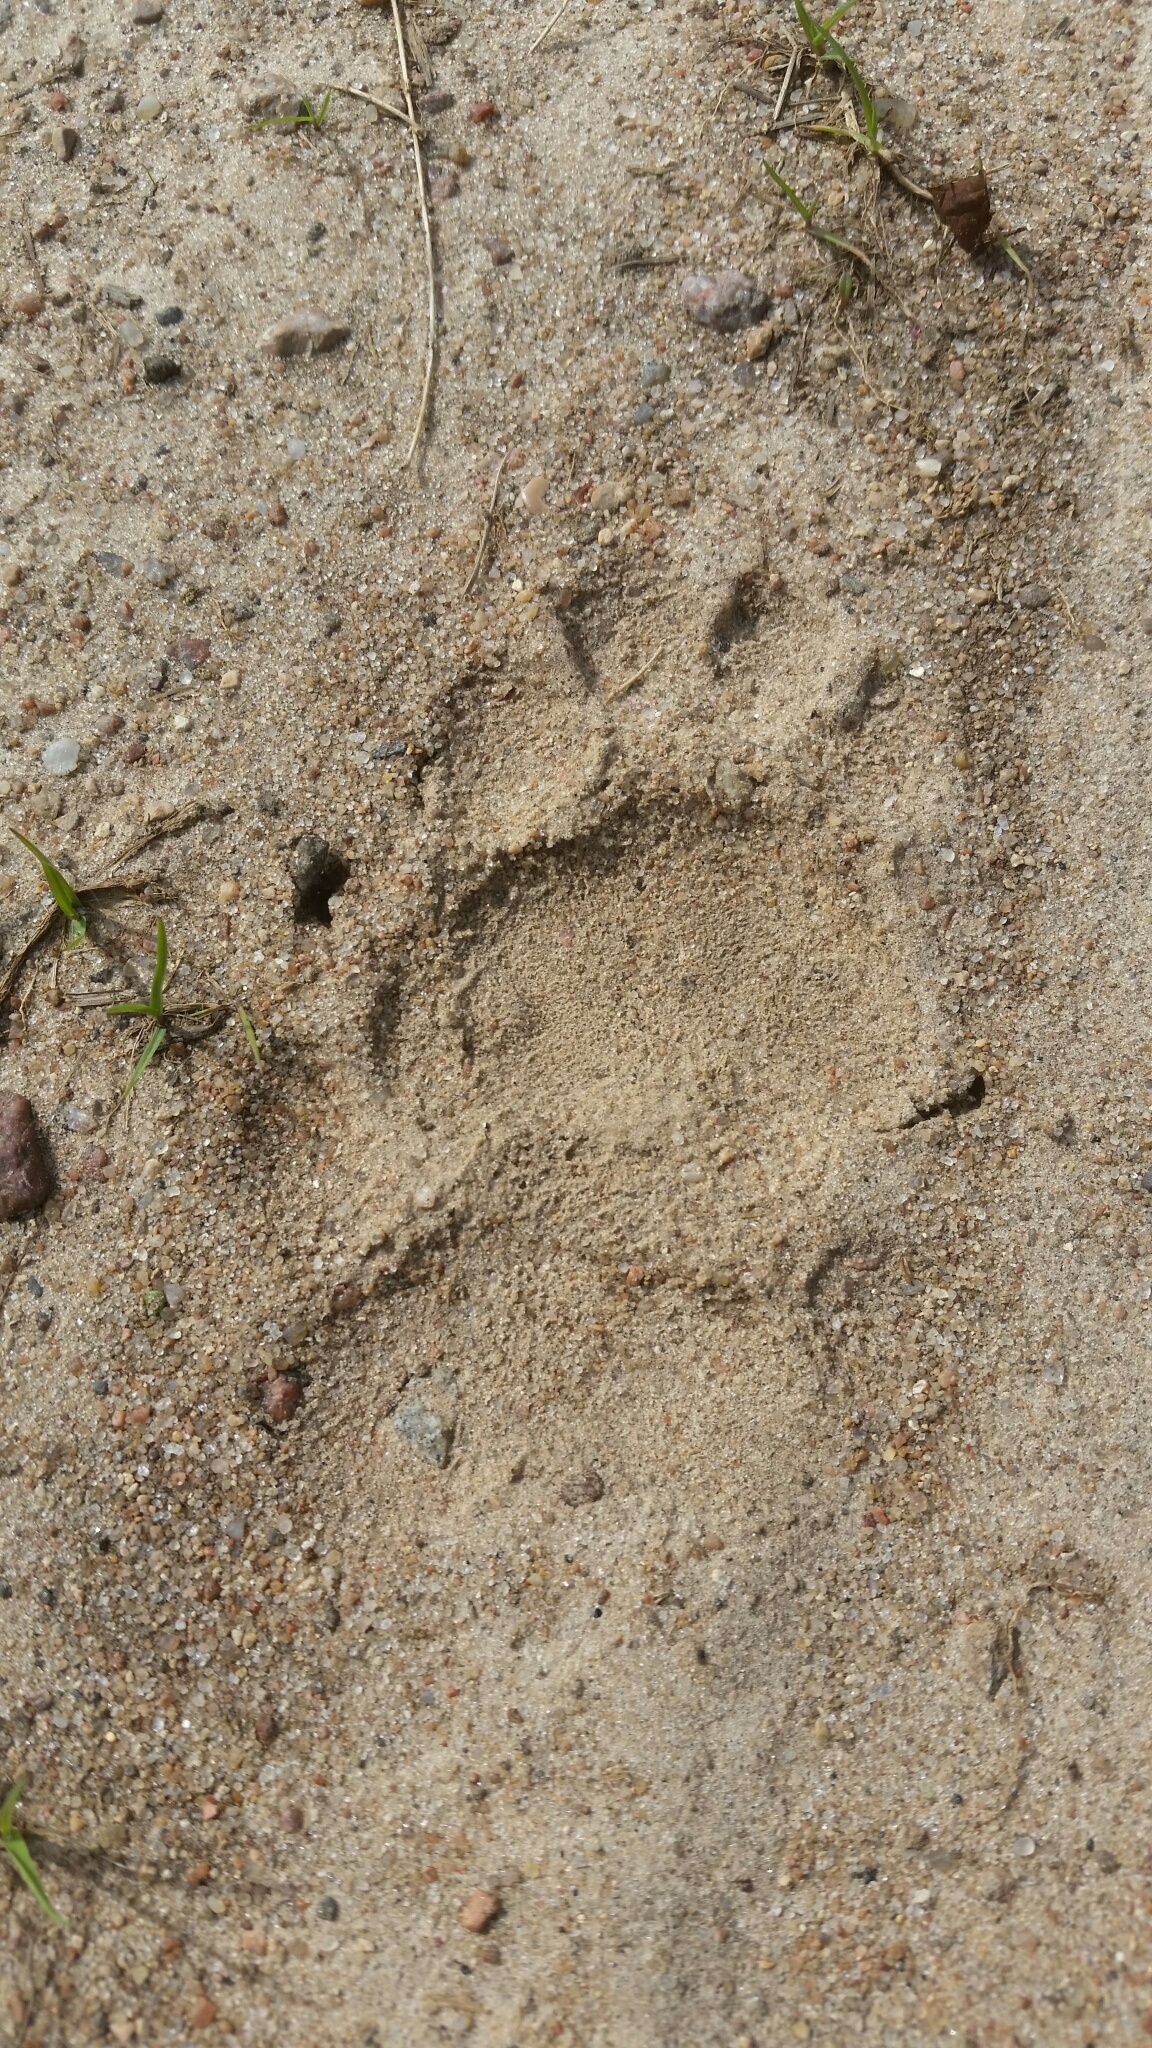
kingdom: Animalia
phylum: Chordata
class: Mammalia
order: Carnivora
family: Mustelidae
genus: Meles
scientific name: Meles meles
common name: Eurasian badger
